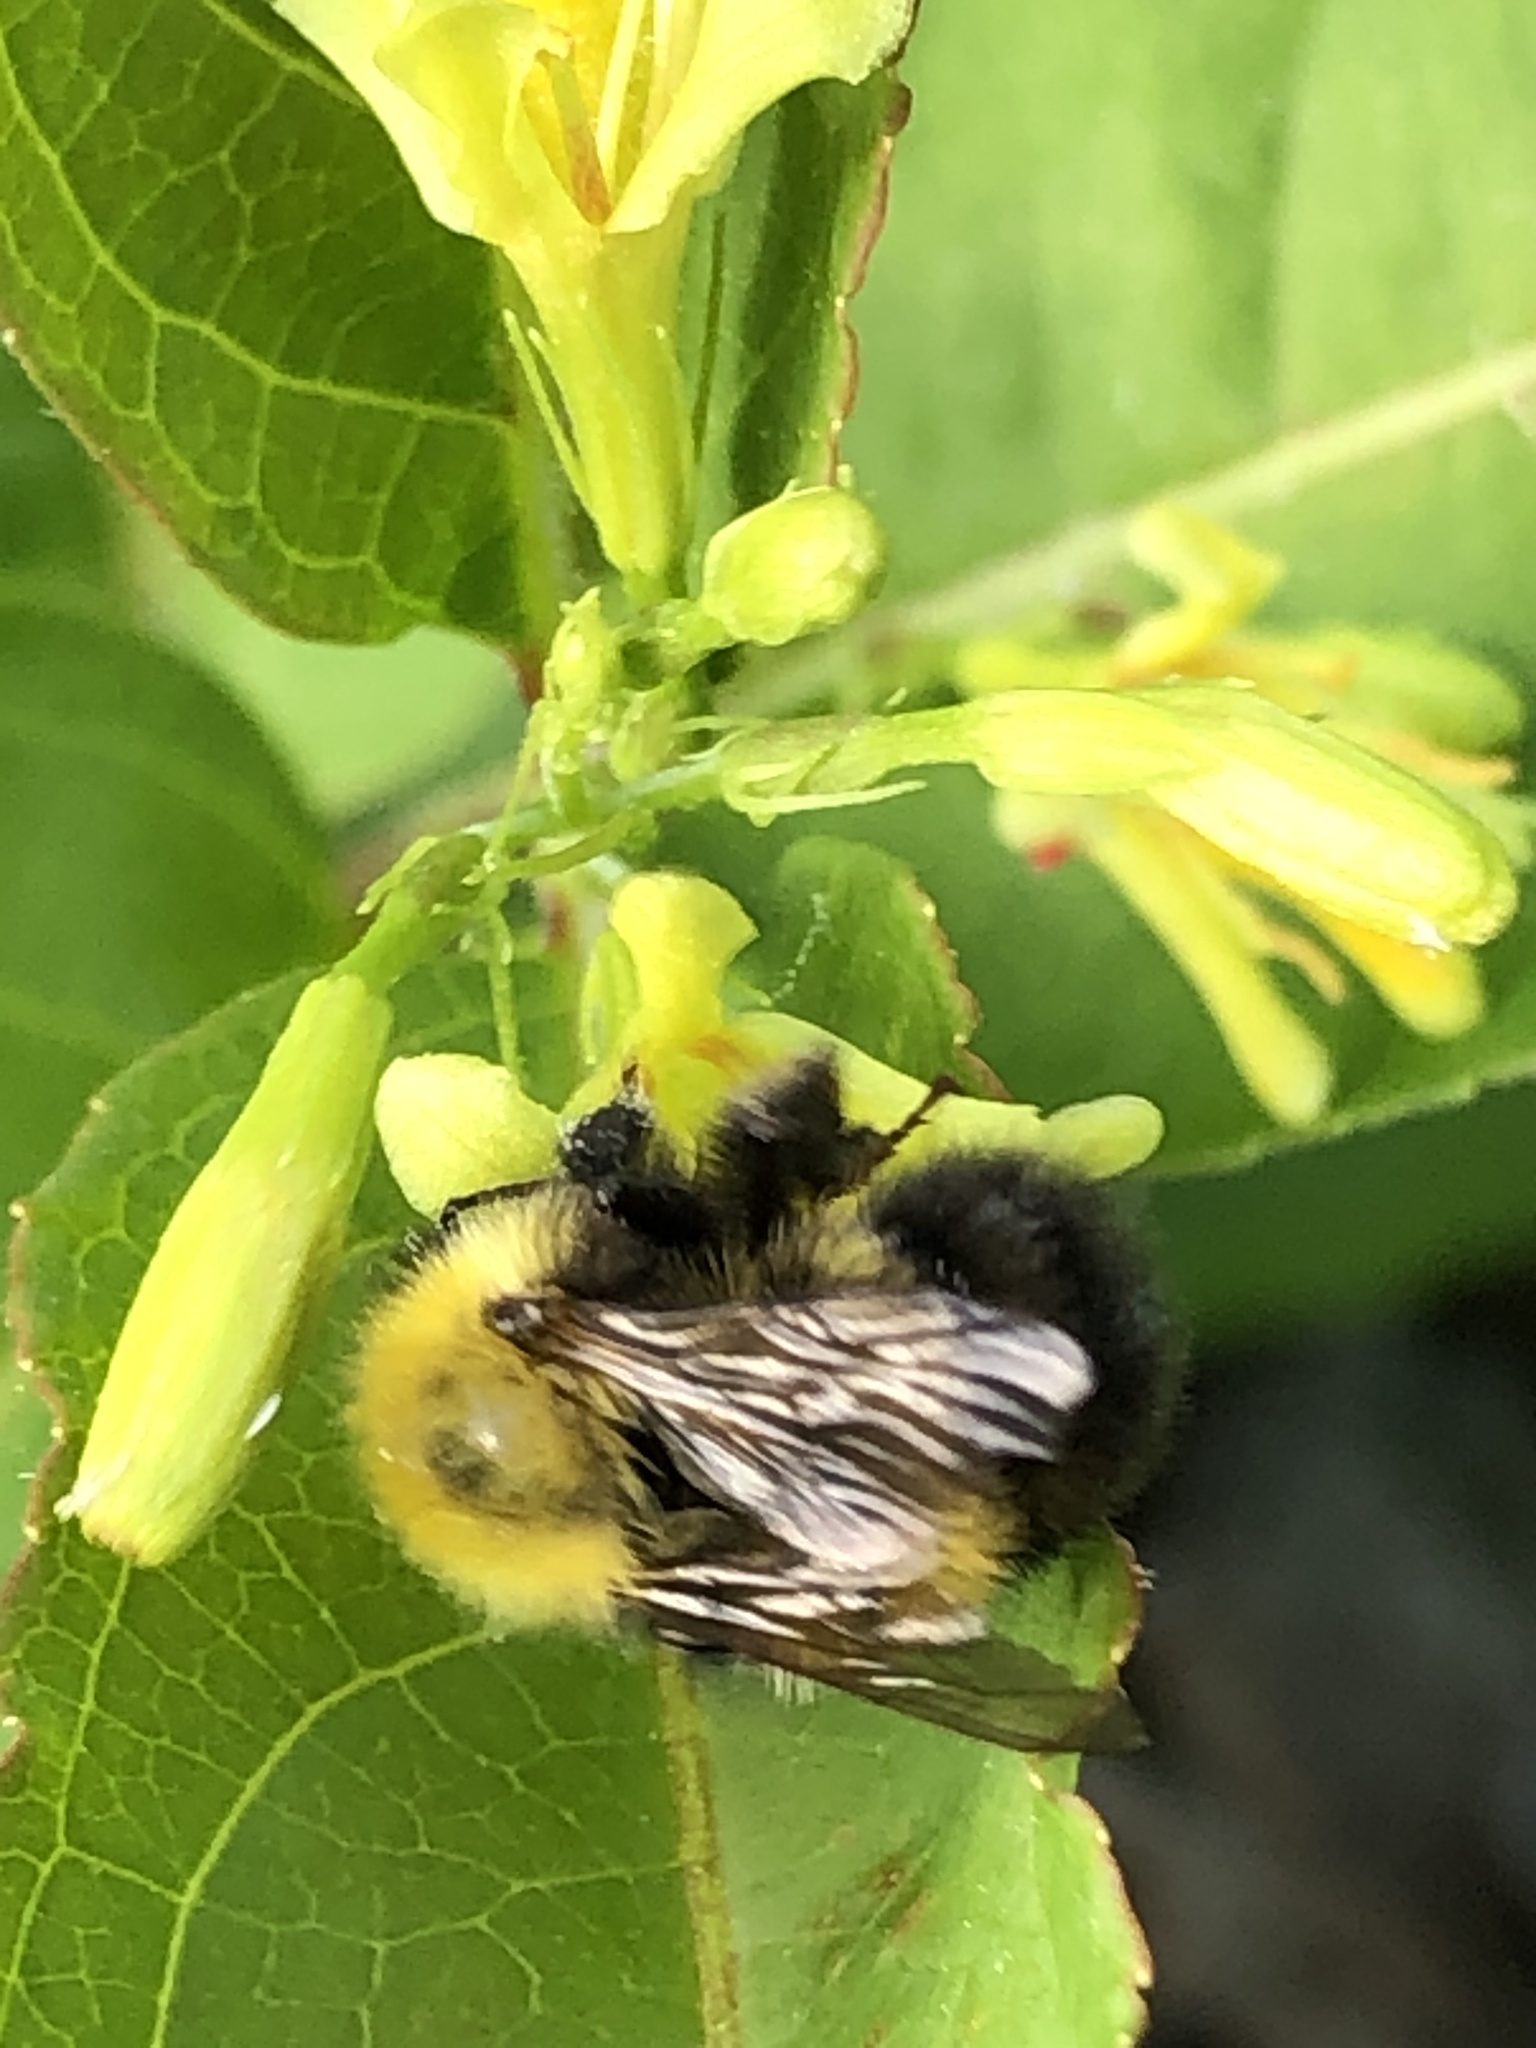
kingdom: Animalia
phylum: Arthropoda
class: Insecta
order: Hymenoptera
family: Apidae
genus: Bombus
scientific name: Bombus perplexus
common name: Confusing bumble bee
